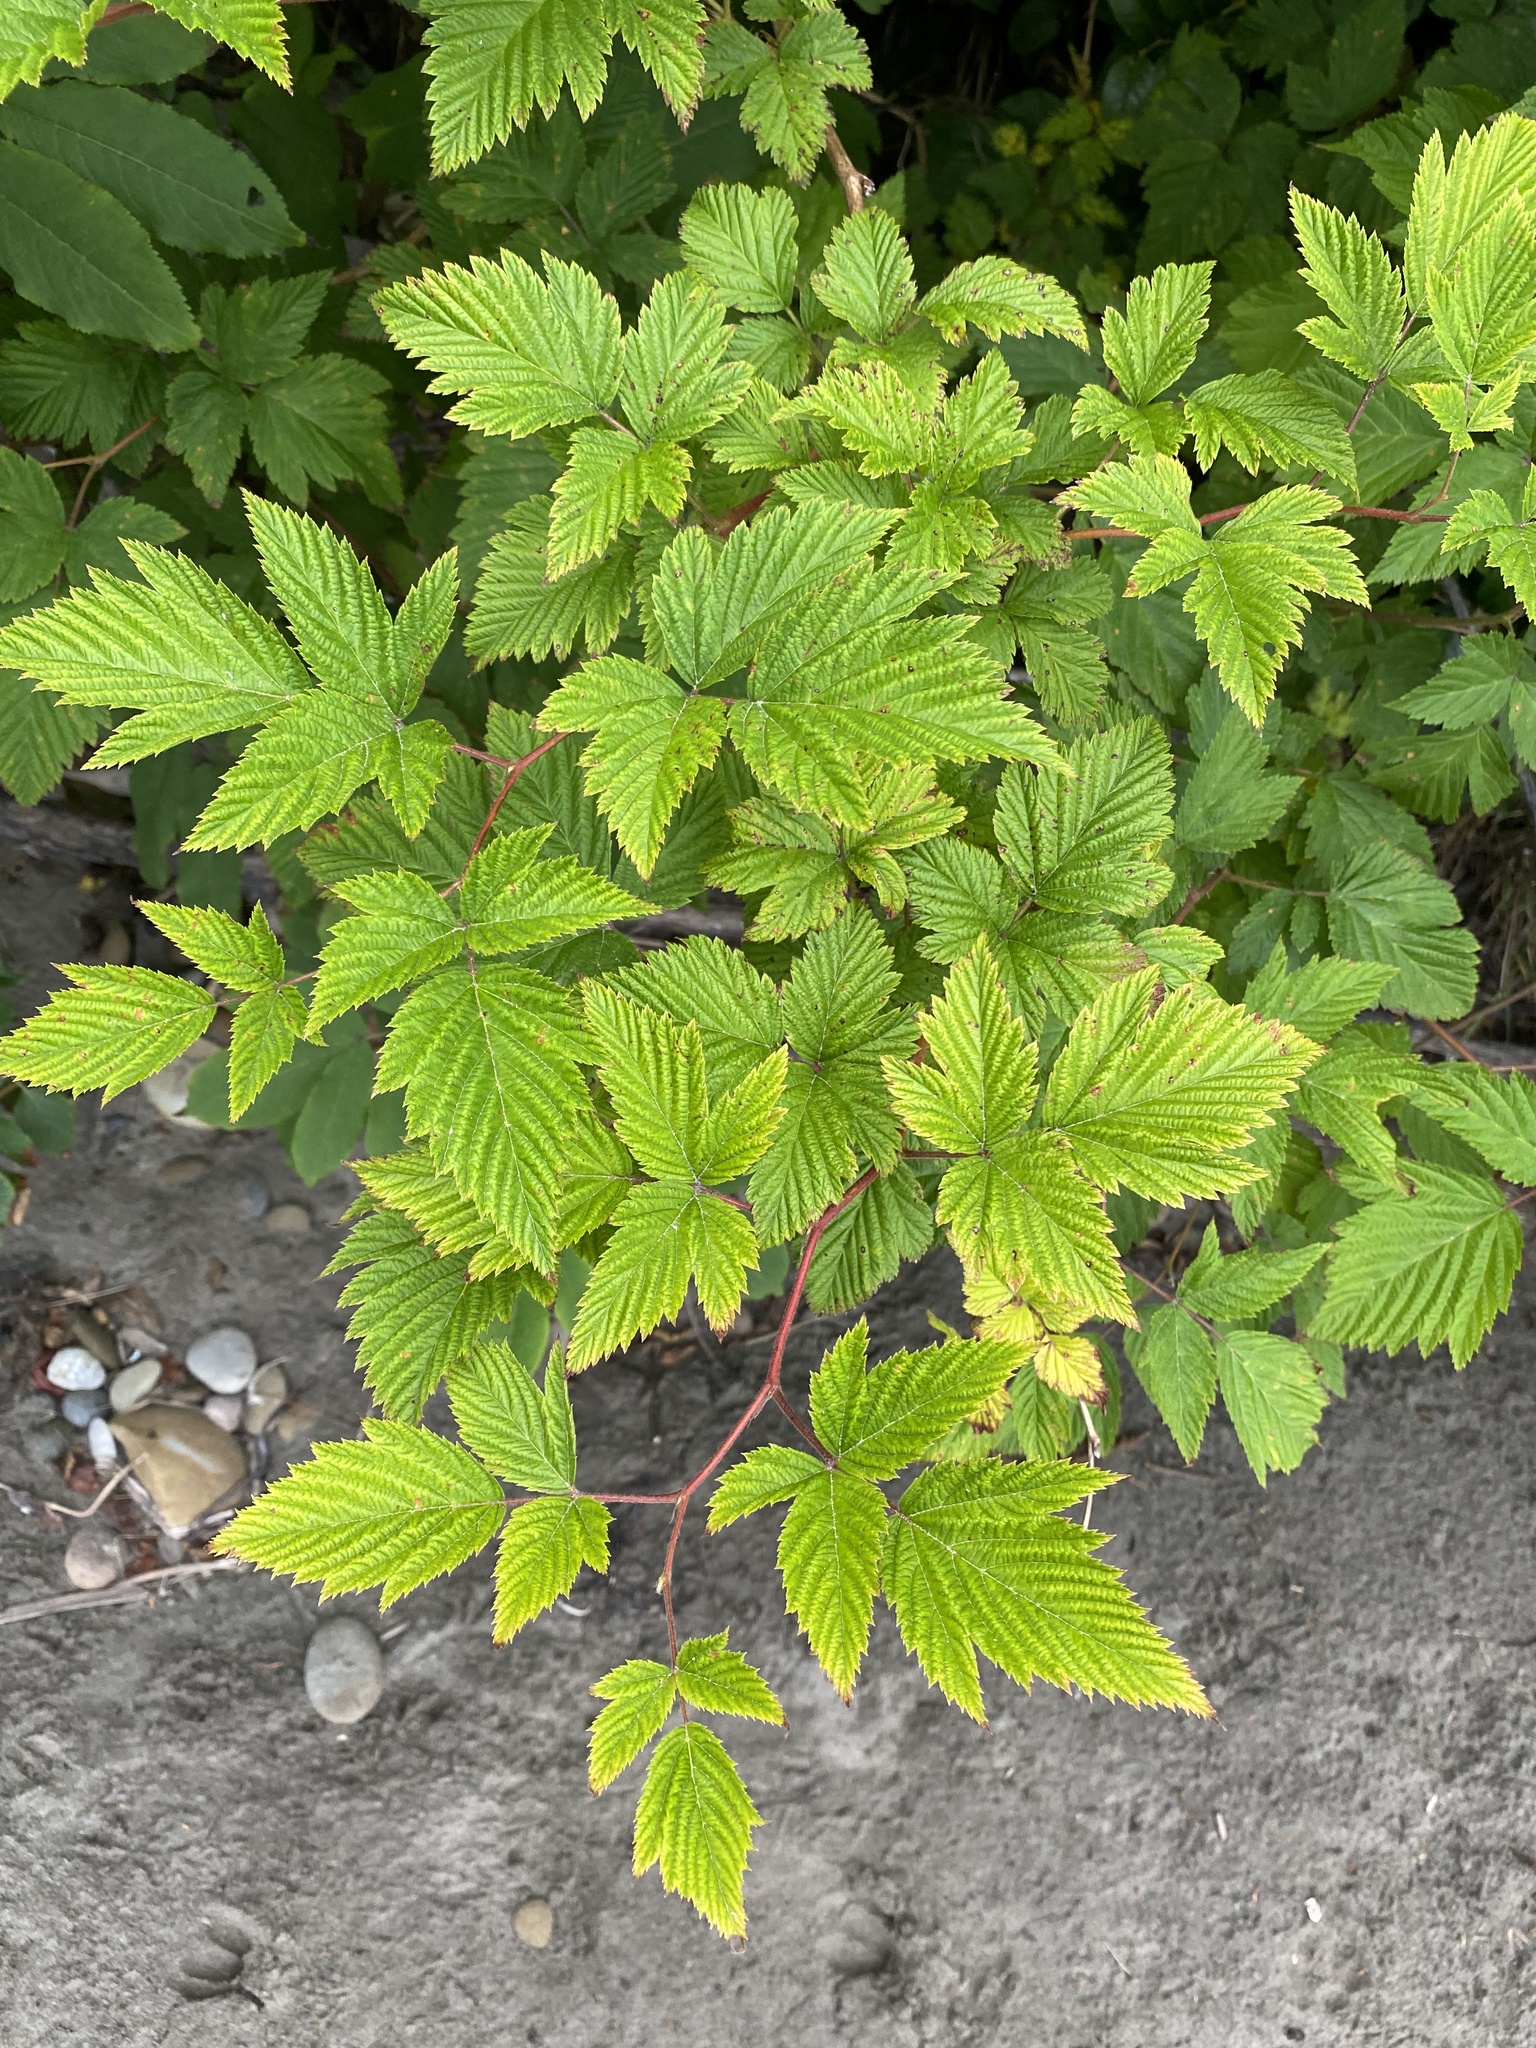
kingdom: Plantae
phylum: Tracheophyta
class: Magnoliopsida
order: Rosales
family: Rosaceae
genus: Rubus
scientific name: Rubus spectabilis
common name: Salmonberry
